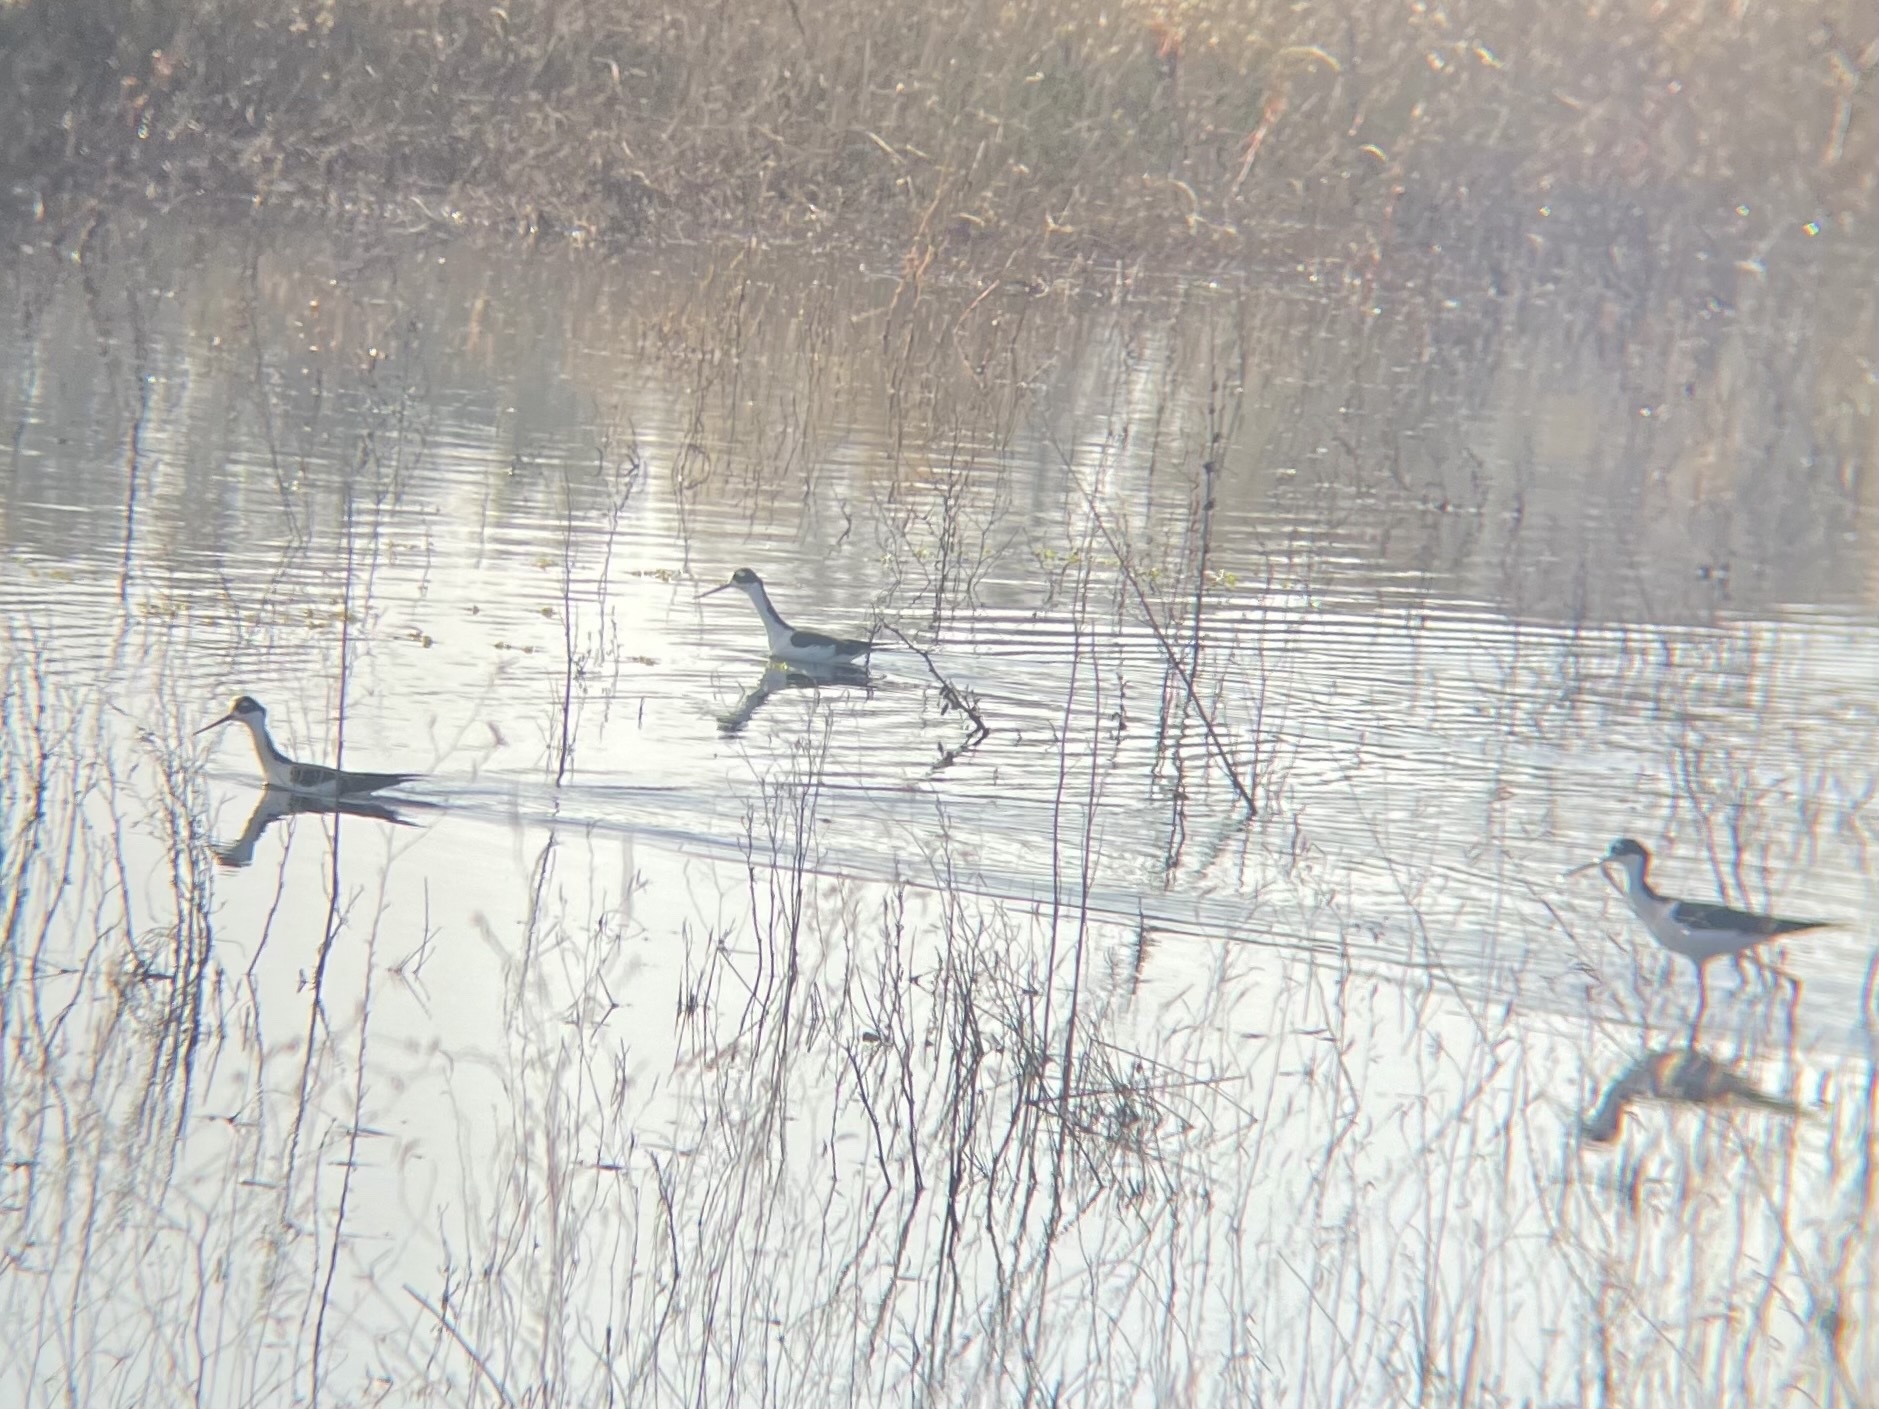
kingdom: Animalia
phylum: Chordata
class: Aves
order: Charadriiformes
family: Recurvirostridae
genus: Himantopus
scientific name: Himantopus mexicanus
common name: Black-necked stilt
